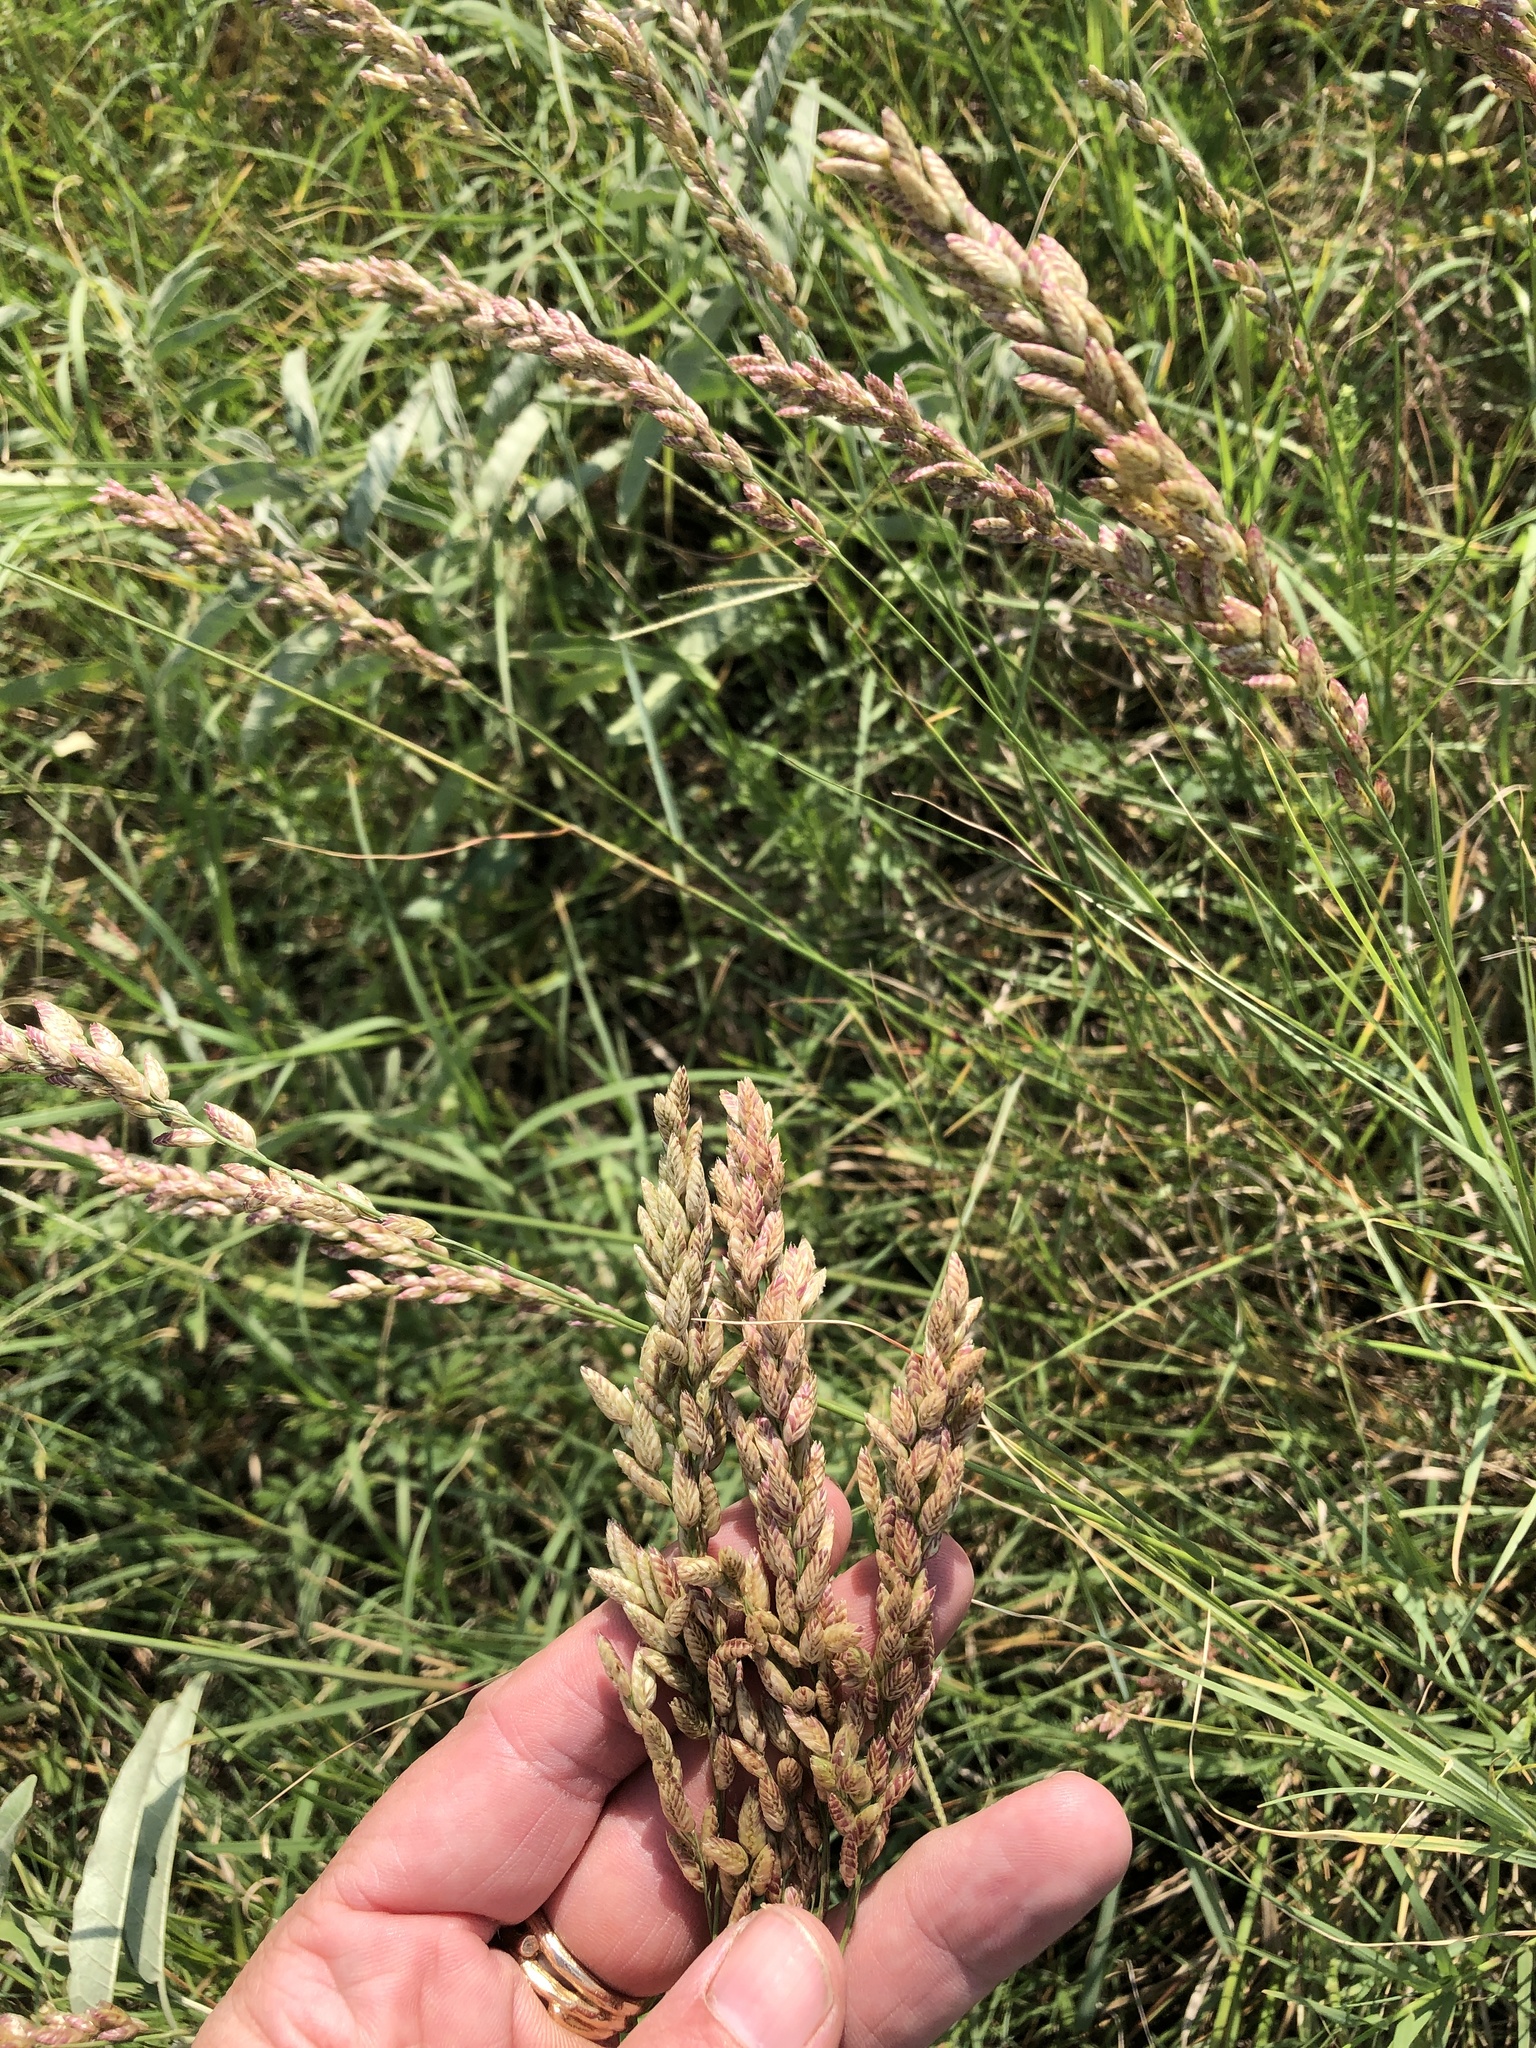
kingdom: Plantae
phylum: Tracheophyta
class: Liliopsida
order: Poales
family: Poaceae
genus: Tridens
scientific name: Tridens congestus
